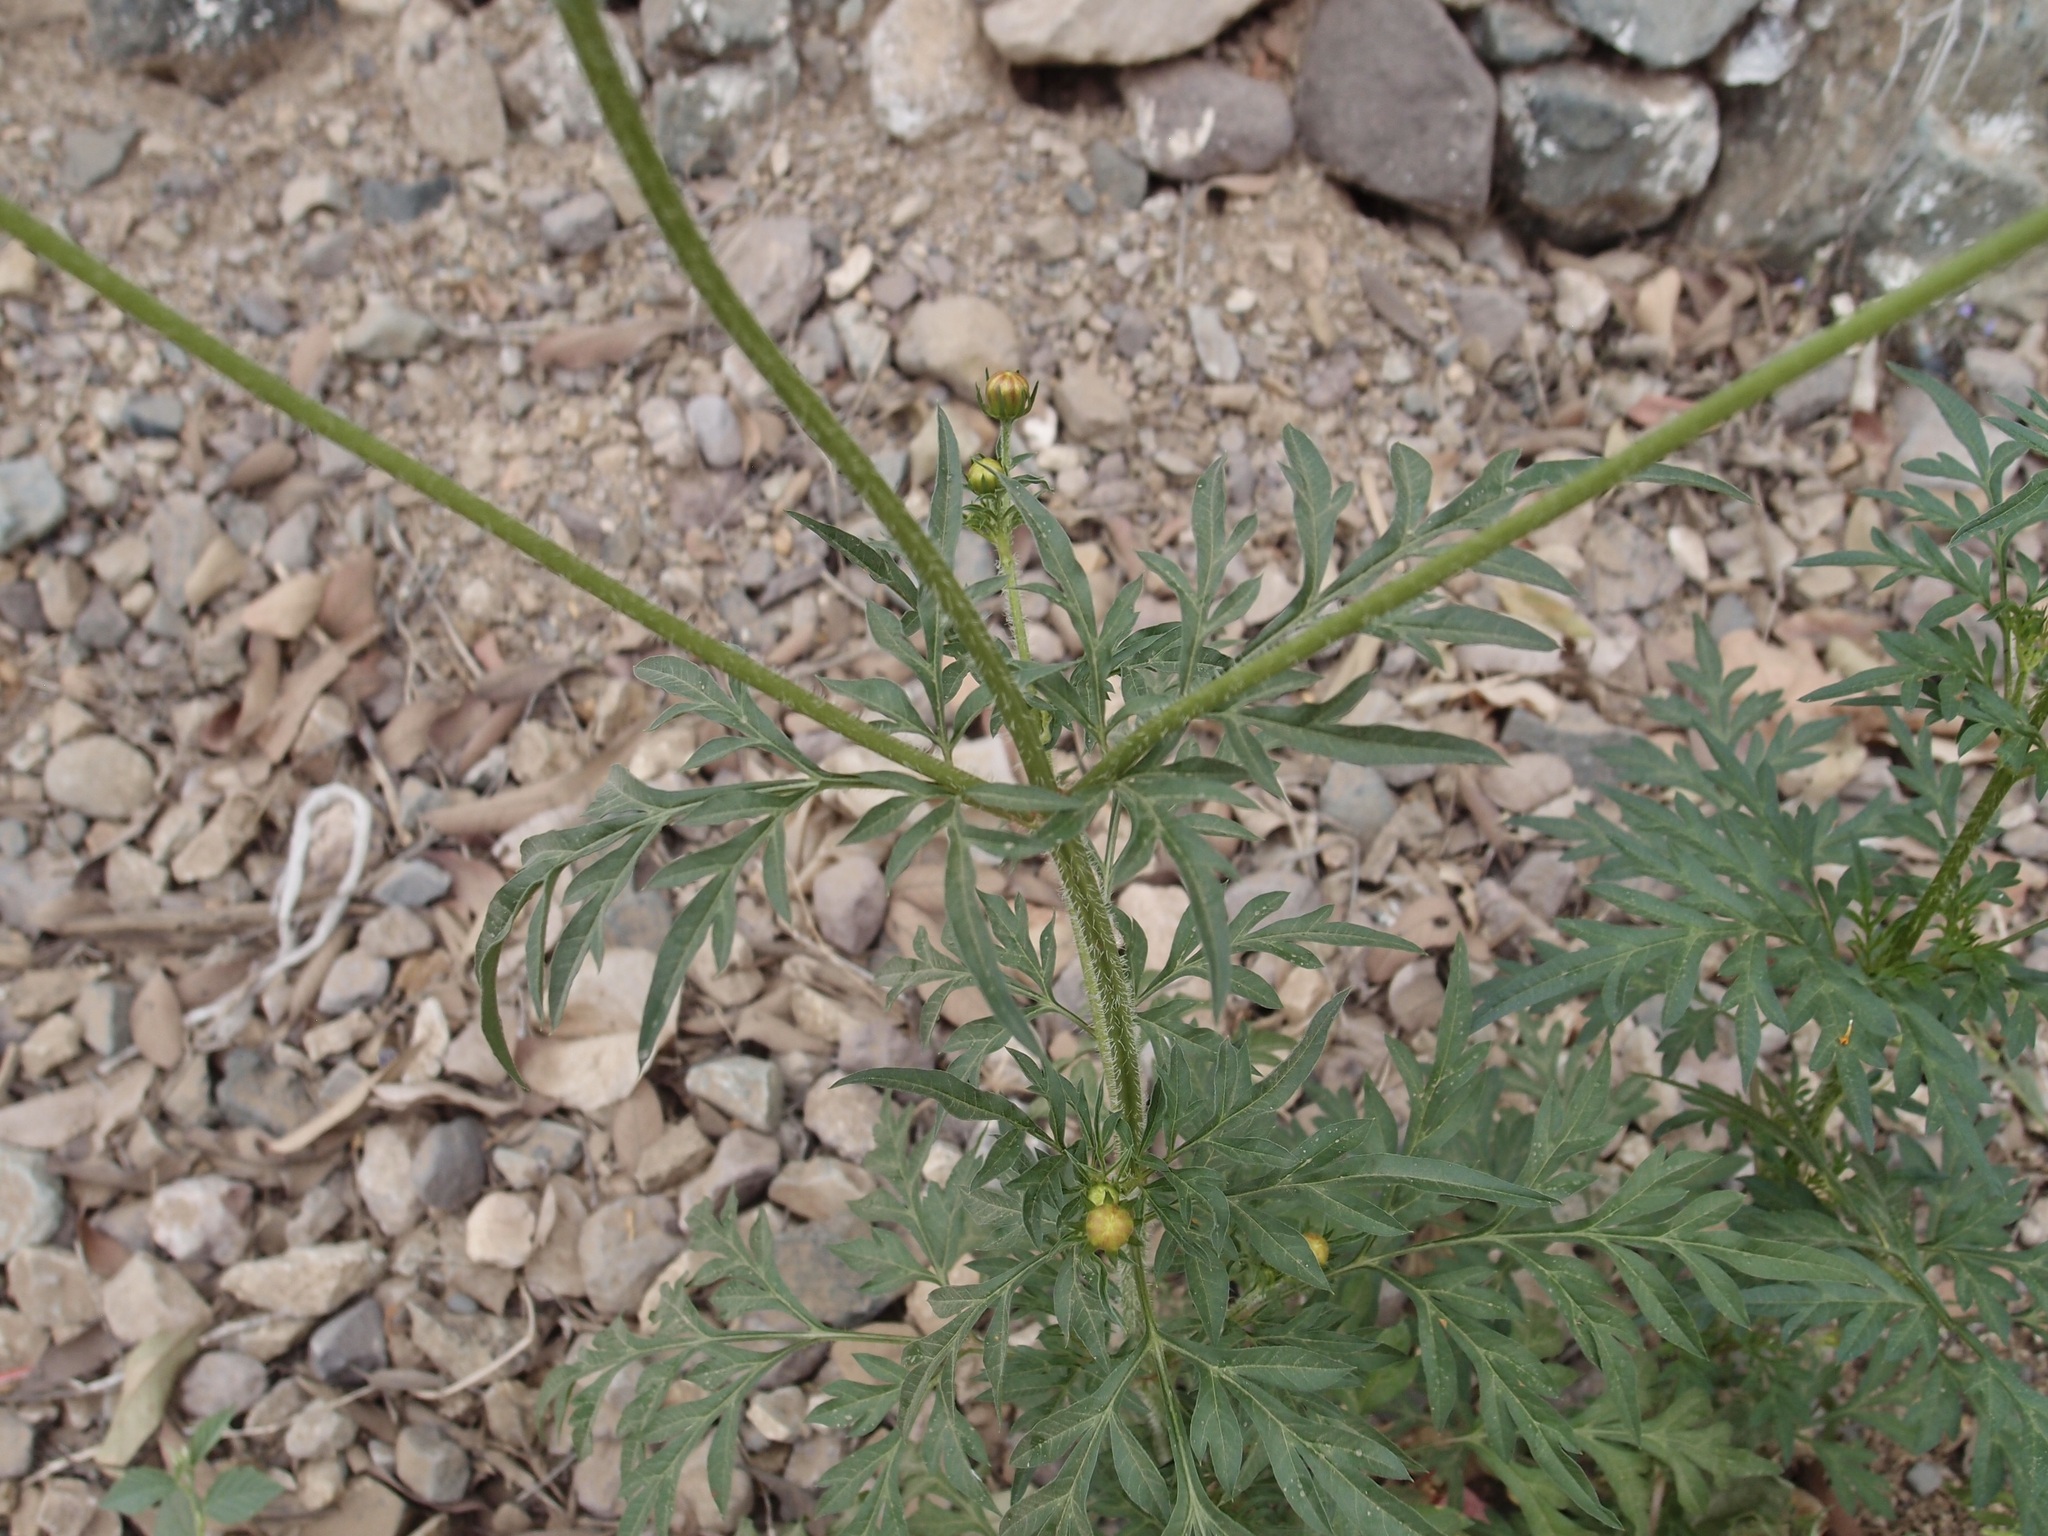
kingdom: Plantae
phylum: Tracheophyta
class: Magnoliopsida
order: Asterales
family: Asteraceae
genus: Cosmos
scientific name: Cosmos sulphureus
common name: Sulphur cosmos
